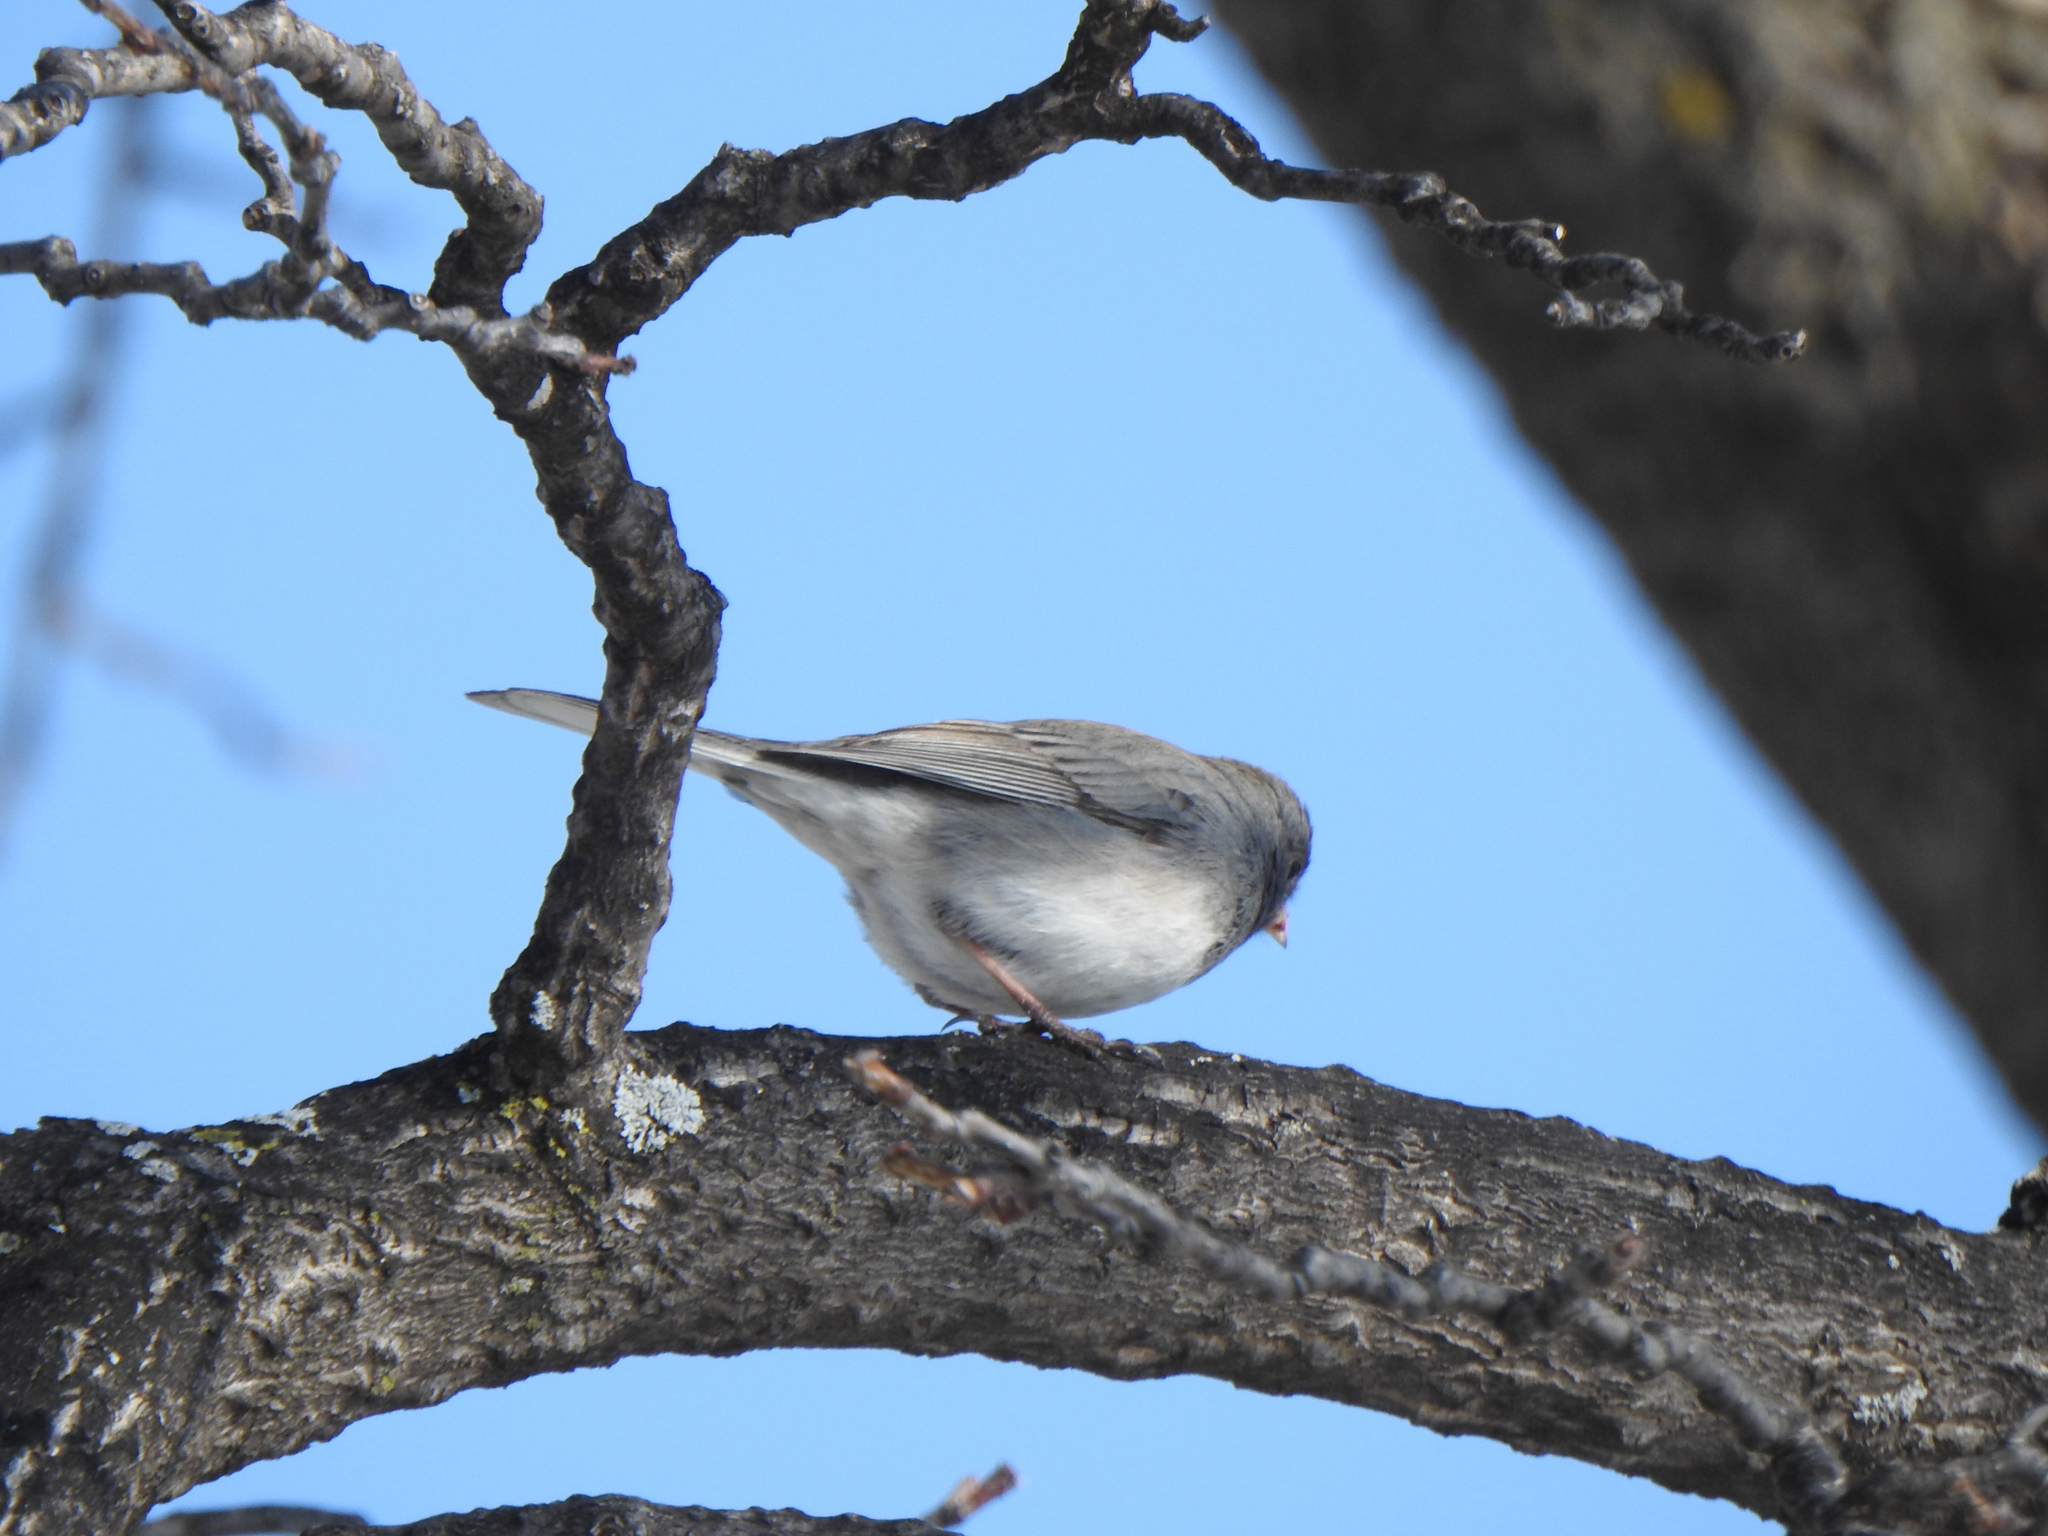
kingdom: Animalia
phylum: Chordata
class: Aves
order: Passeriformes
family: Passerellidae
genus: Junco
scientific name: Junco hyemalis
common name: Dark-eyed junco
